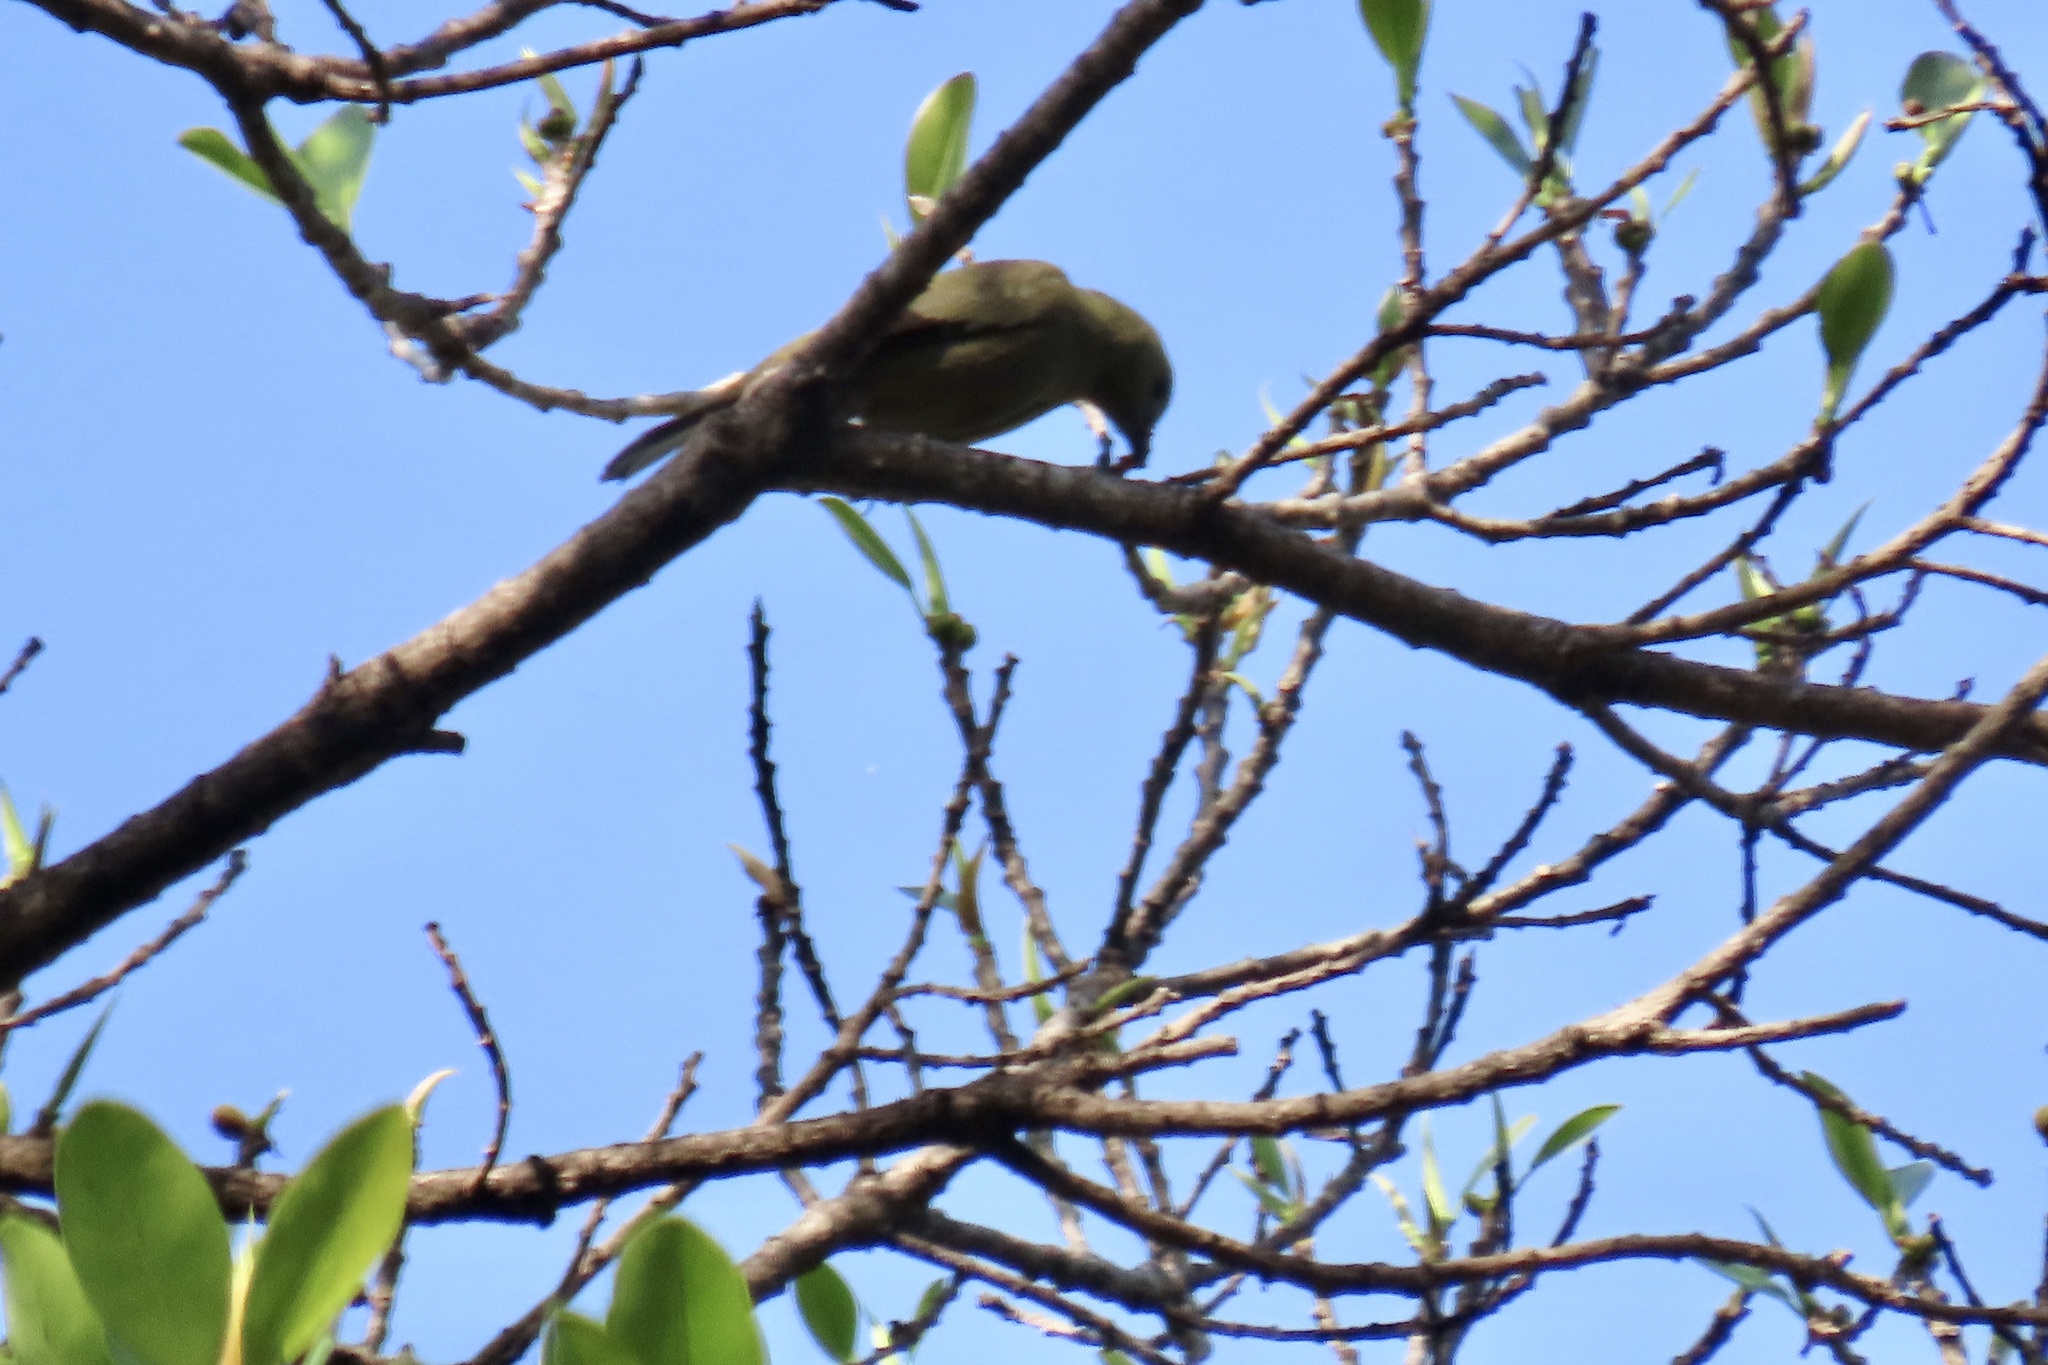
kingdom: Animalia
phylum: Chordata
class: Aves
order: Passeriformes
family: Thraupidae
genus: Thraupis
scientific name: Thraupis palmarum
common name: Palm tanager
